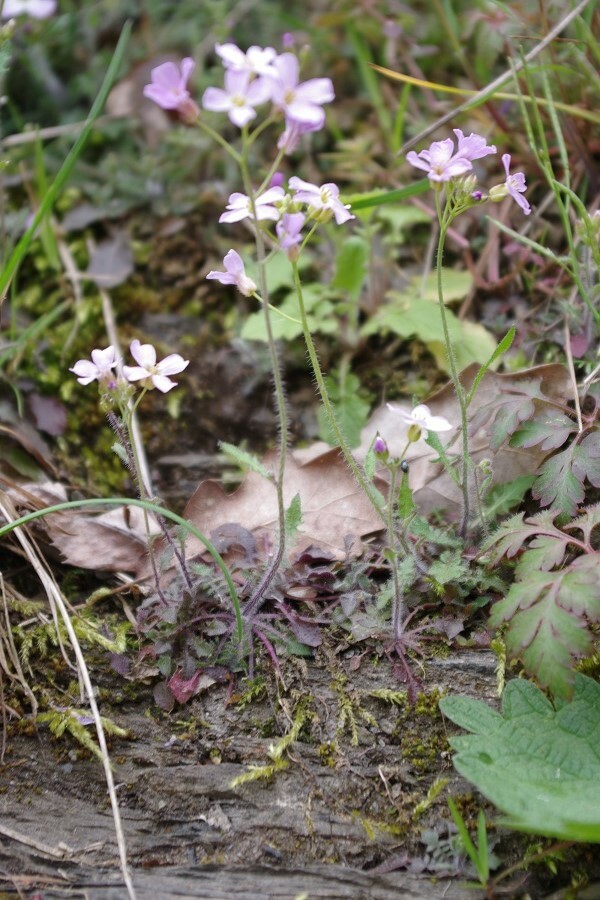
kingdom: Plantae
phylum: Tracheophyta
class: Magnoliopsida
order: Brassicales
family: Brassicaceae
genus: Arabidopsis
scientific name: Arabidopsis arenosa
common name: Sand rock-cress
